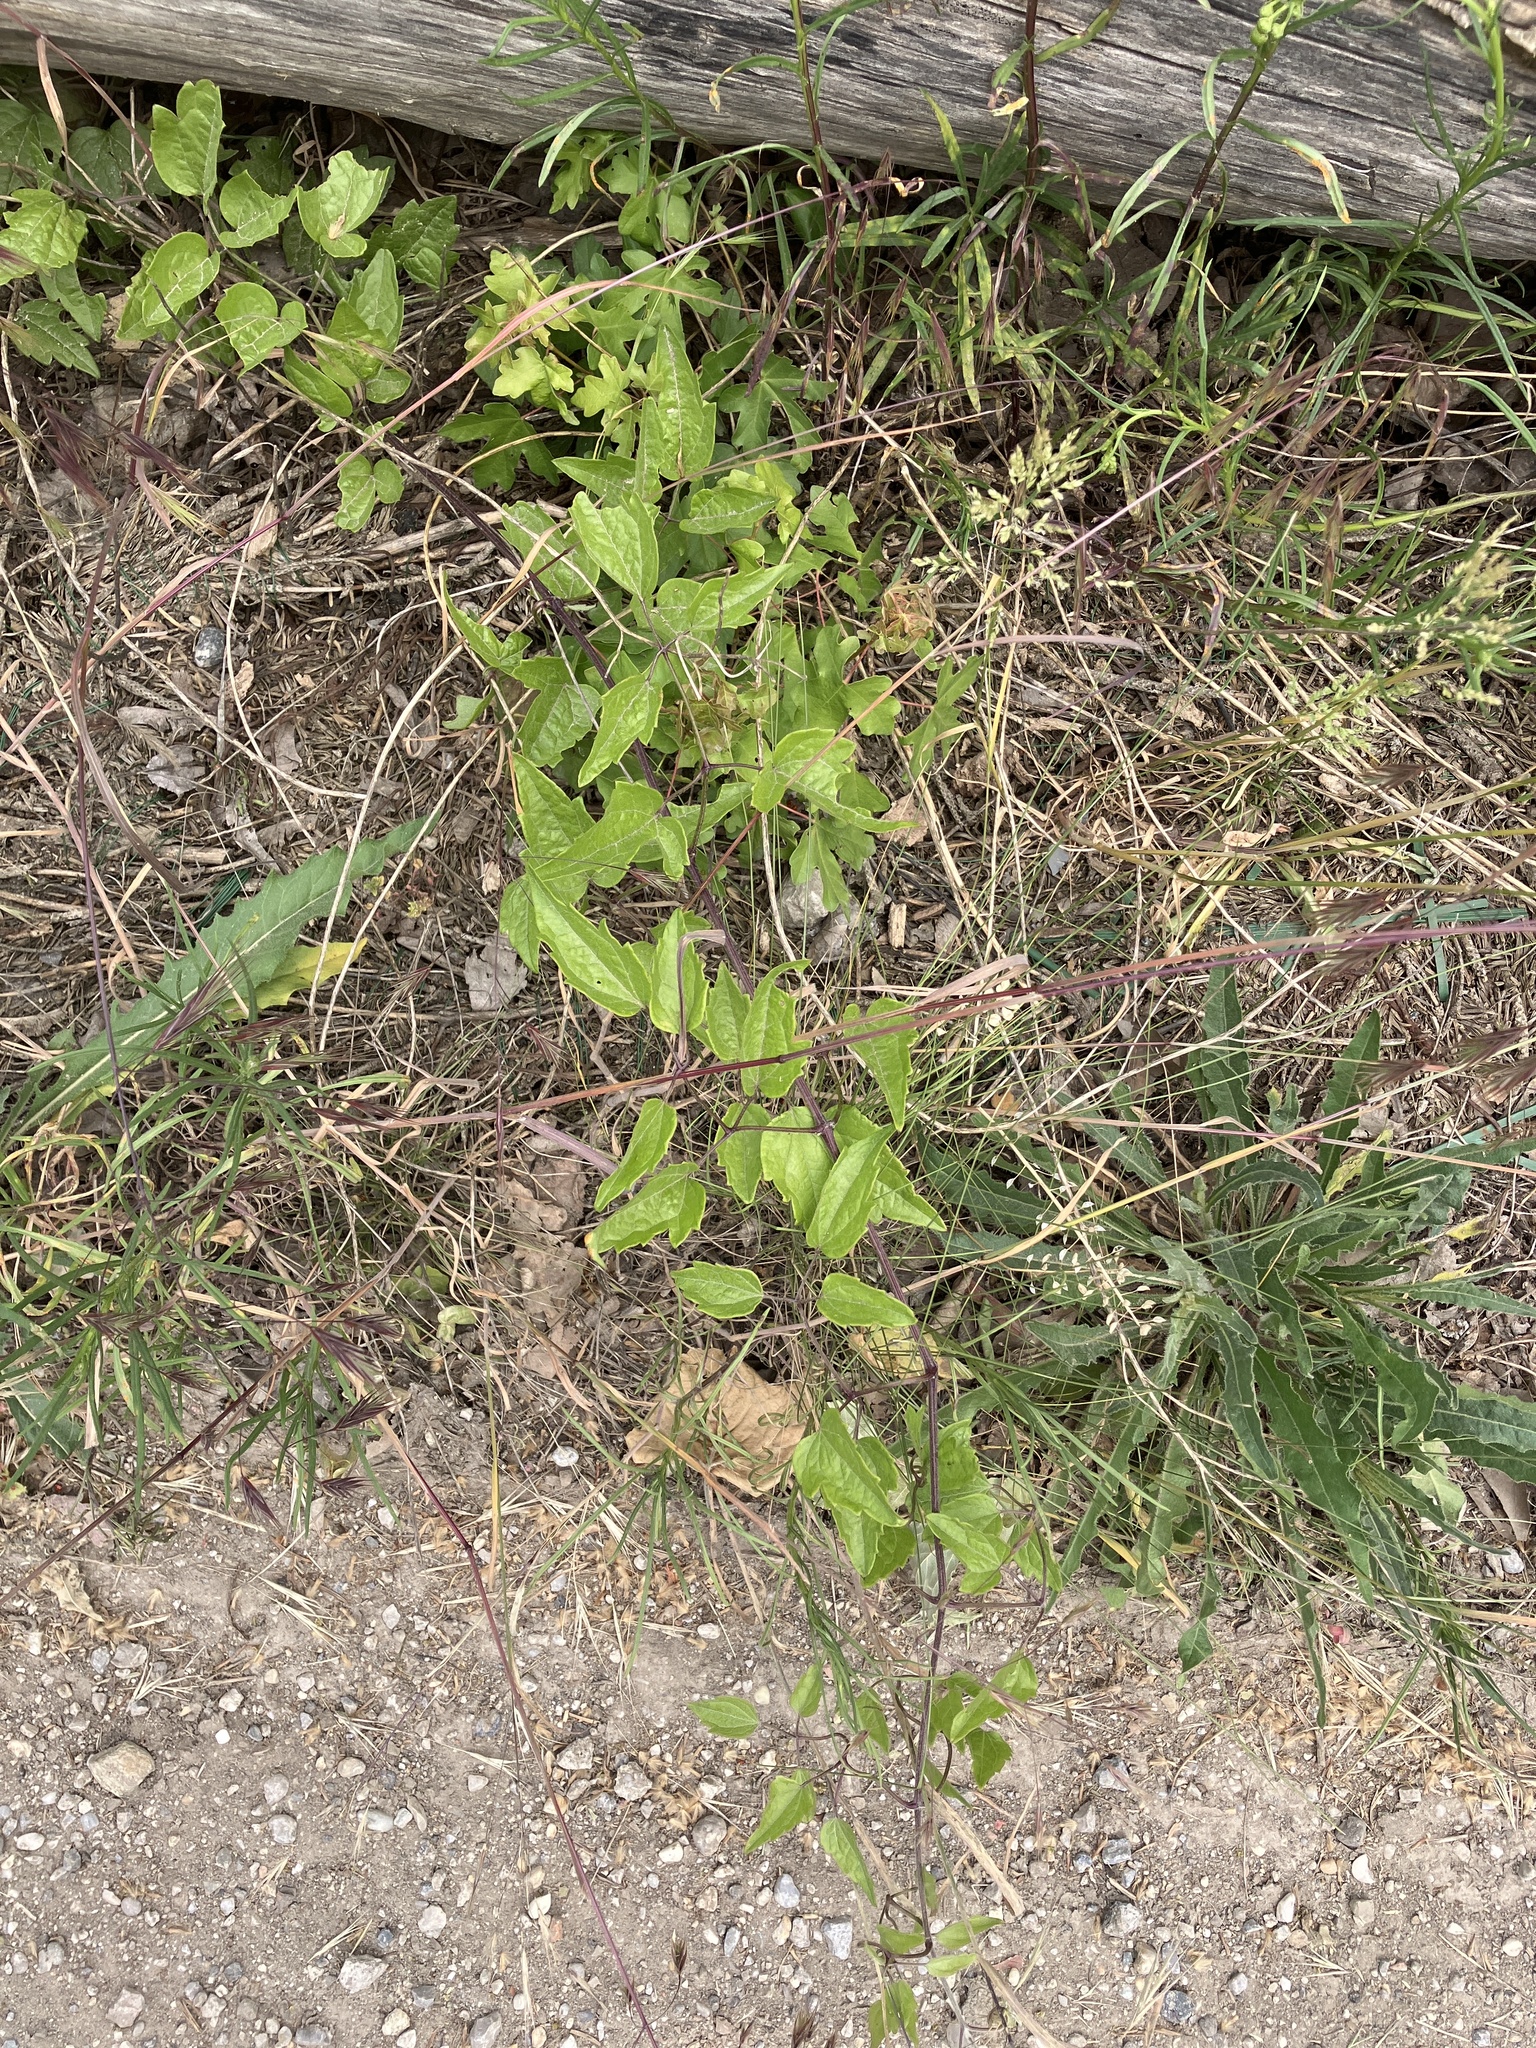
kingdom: Plantae
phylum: Tracheophyta
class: Magnoliopsida
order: Ranunculales
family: Ranunculaceae
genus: Clematis
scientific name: Clematis vitalba
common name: Evergreen clematis
